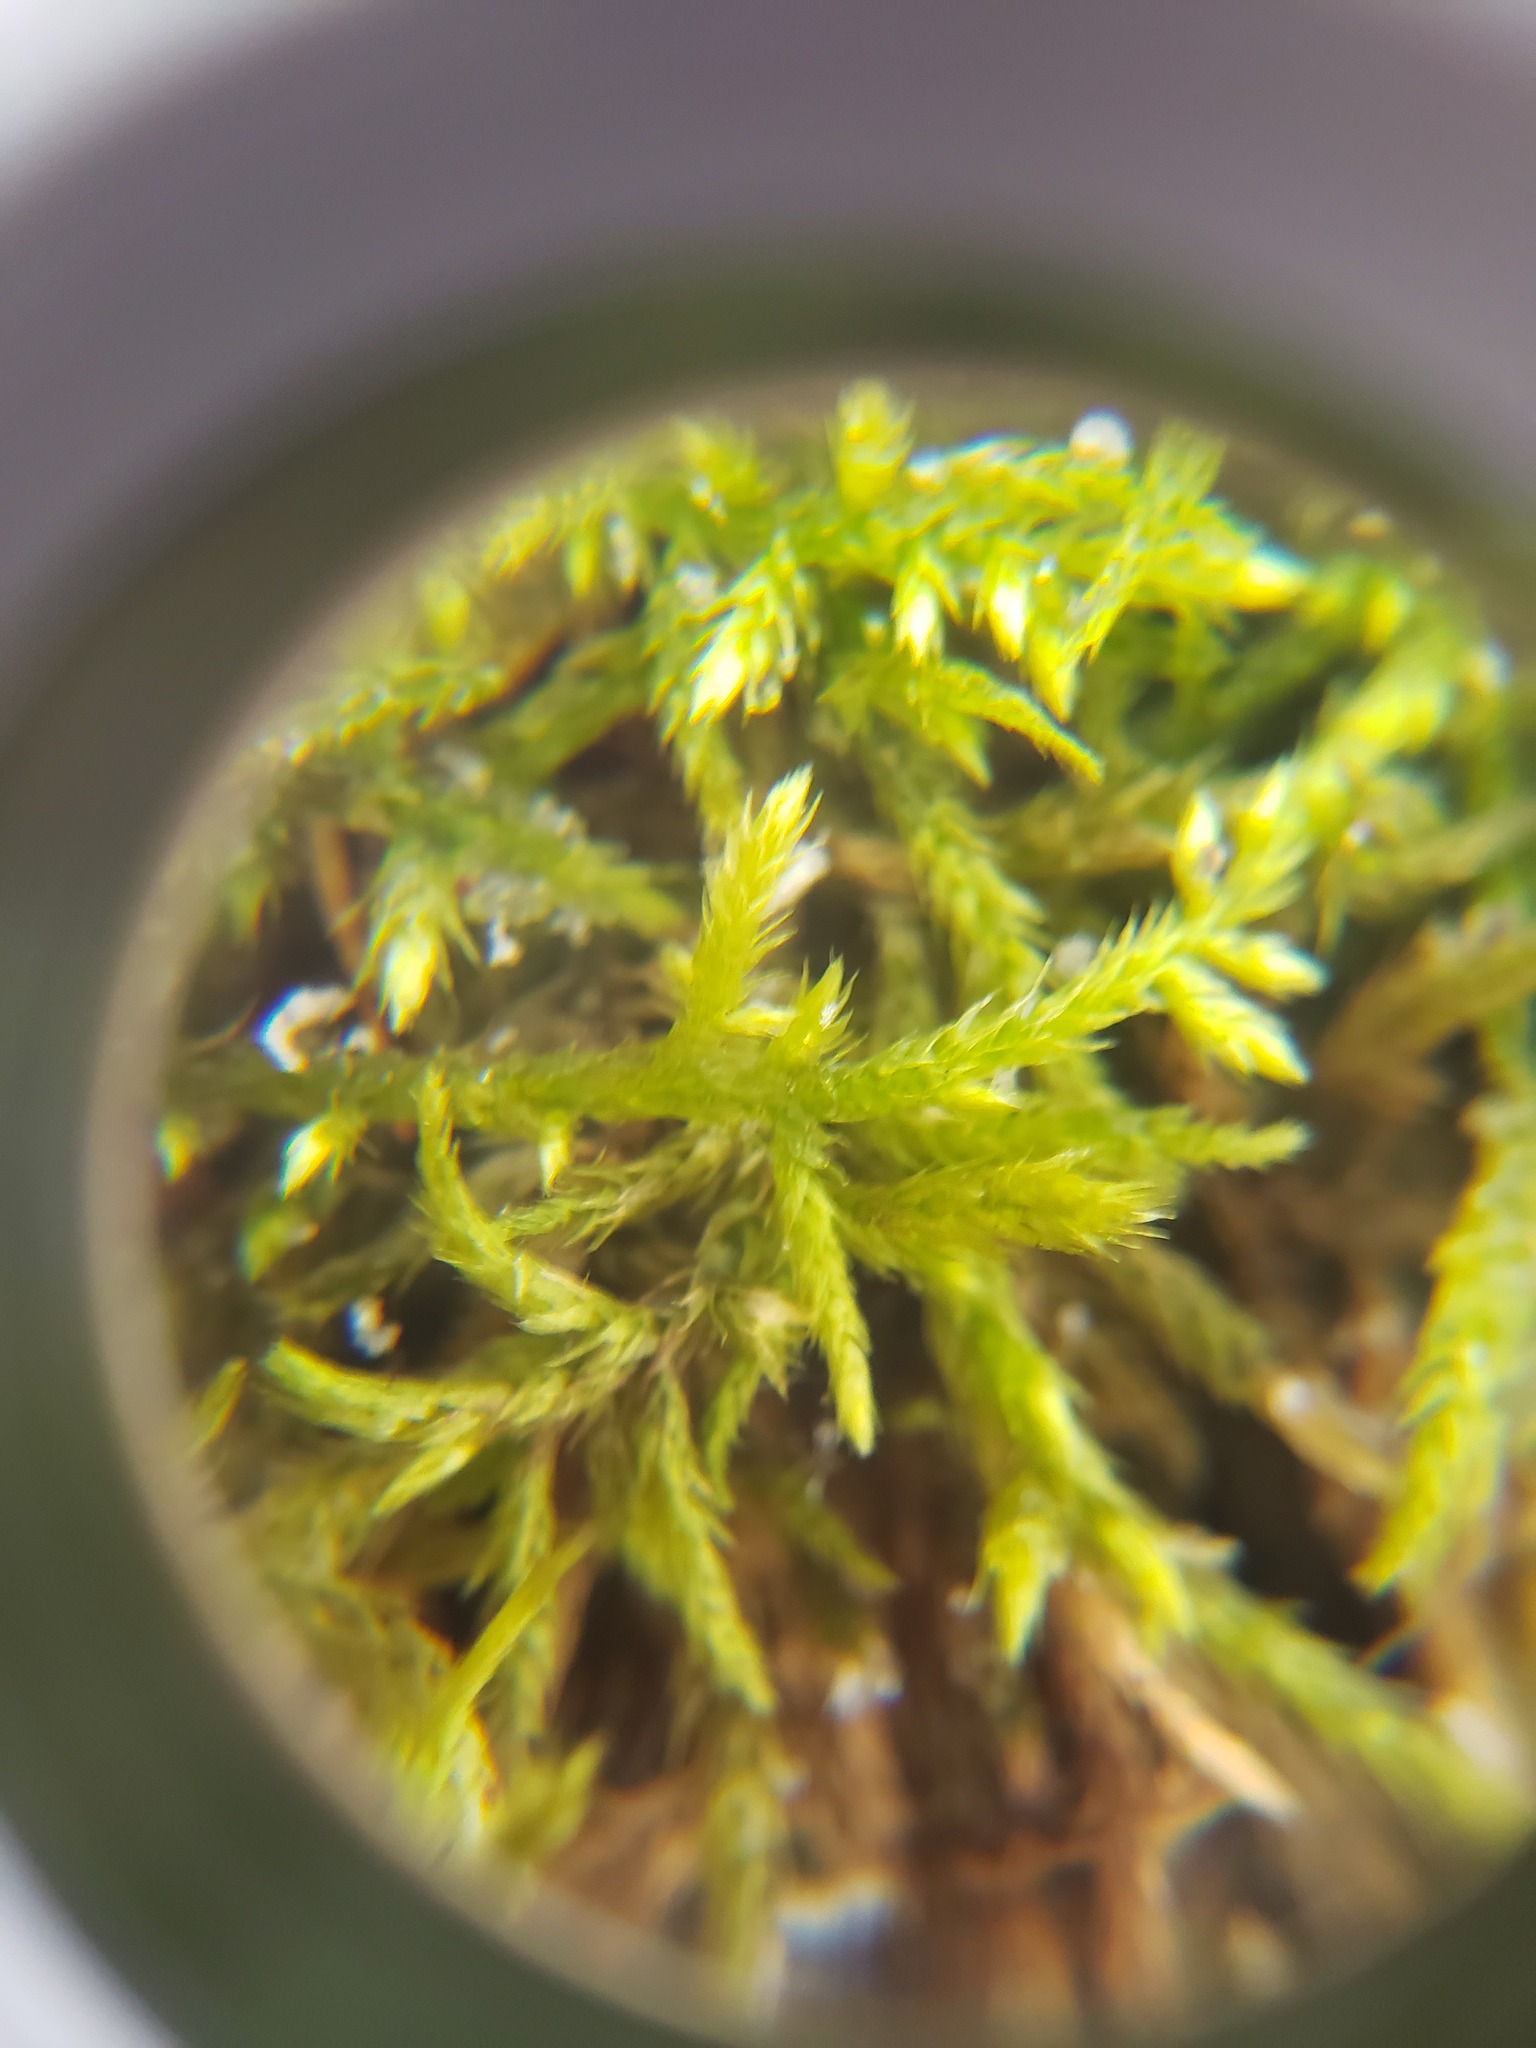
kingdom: Plantae
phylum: Bryophyta
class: Bryopsida
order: Hypnales
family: Callicladiaceae
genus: Callicladium
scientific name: Callicladium haldanianum
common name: Beautiful branch moss
